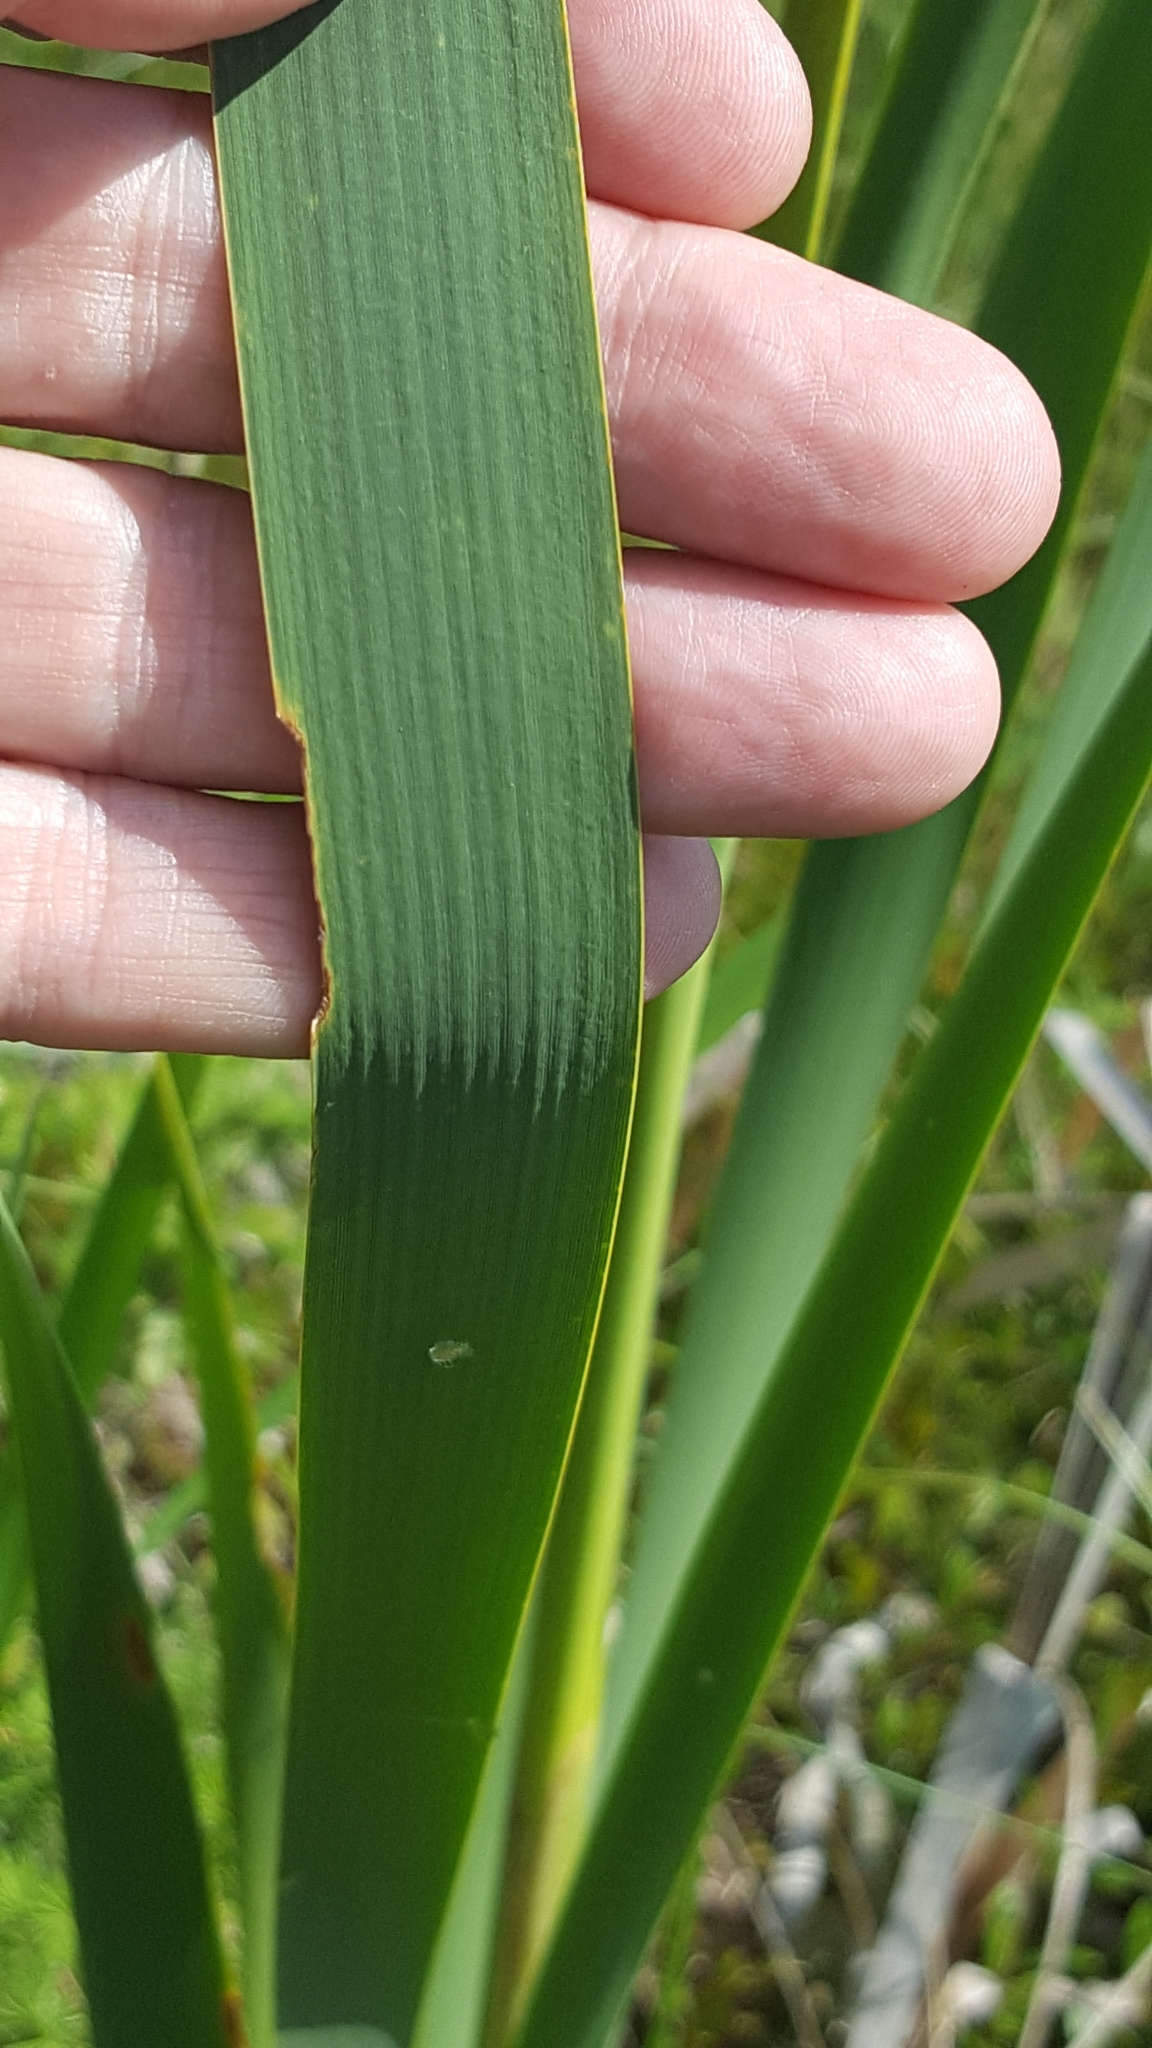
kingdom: Plantae
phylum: Tracheophyta
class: Liliopsida
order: Poales
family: Typhaceae
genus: Typha
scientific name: Typha latifolia
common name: Broadleaf cattail
